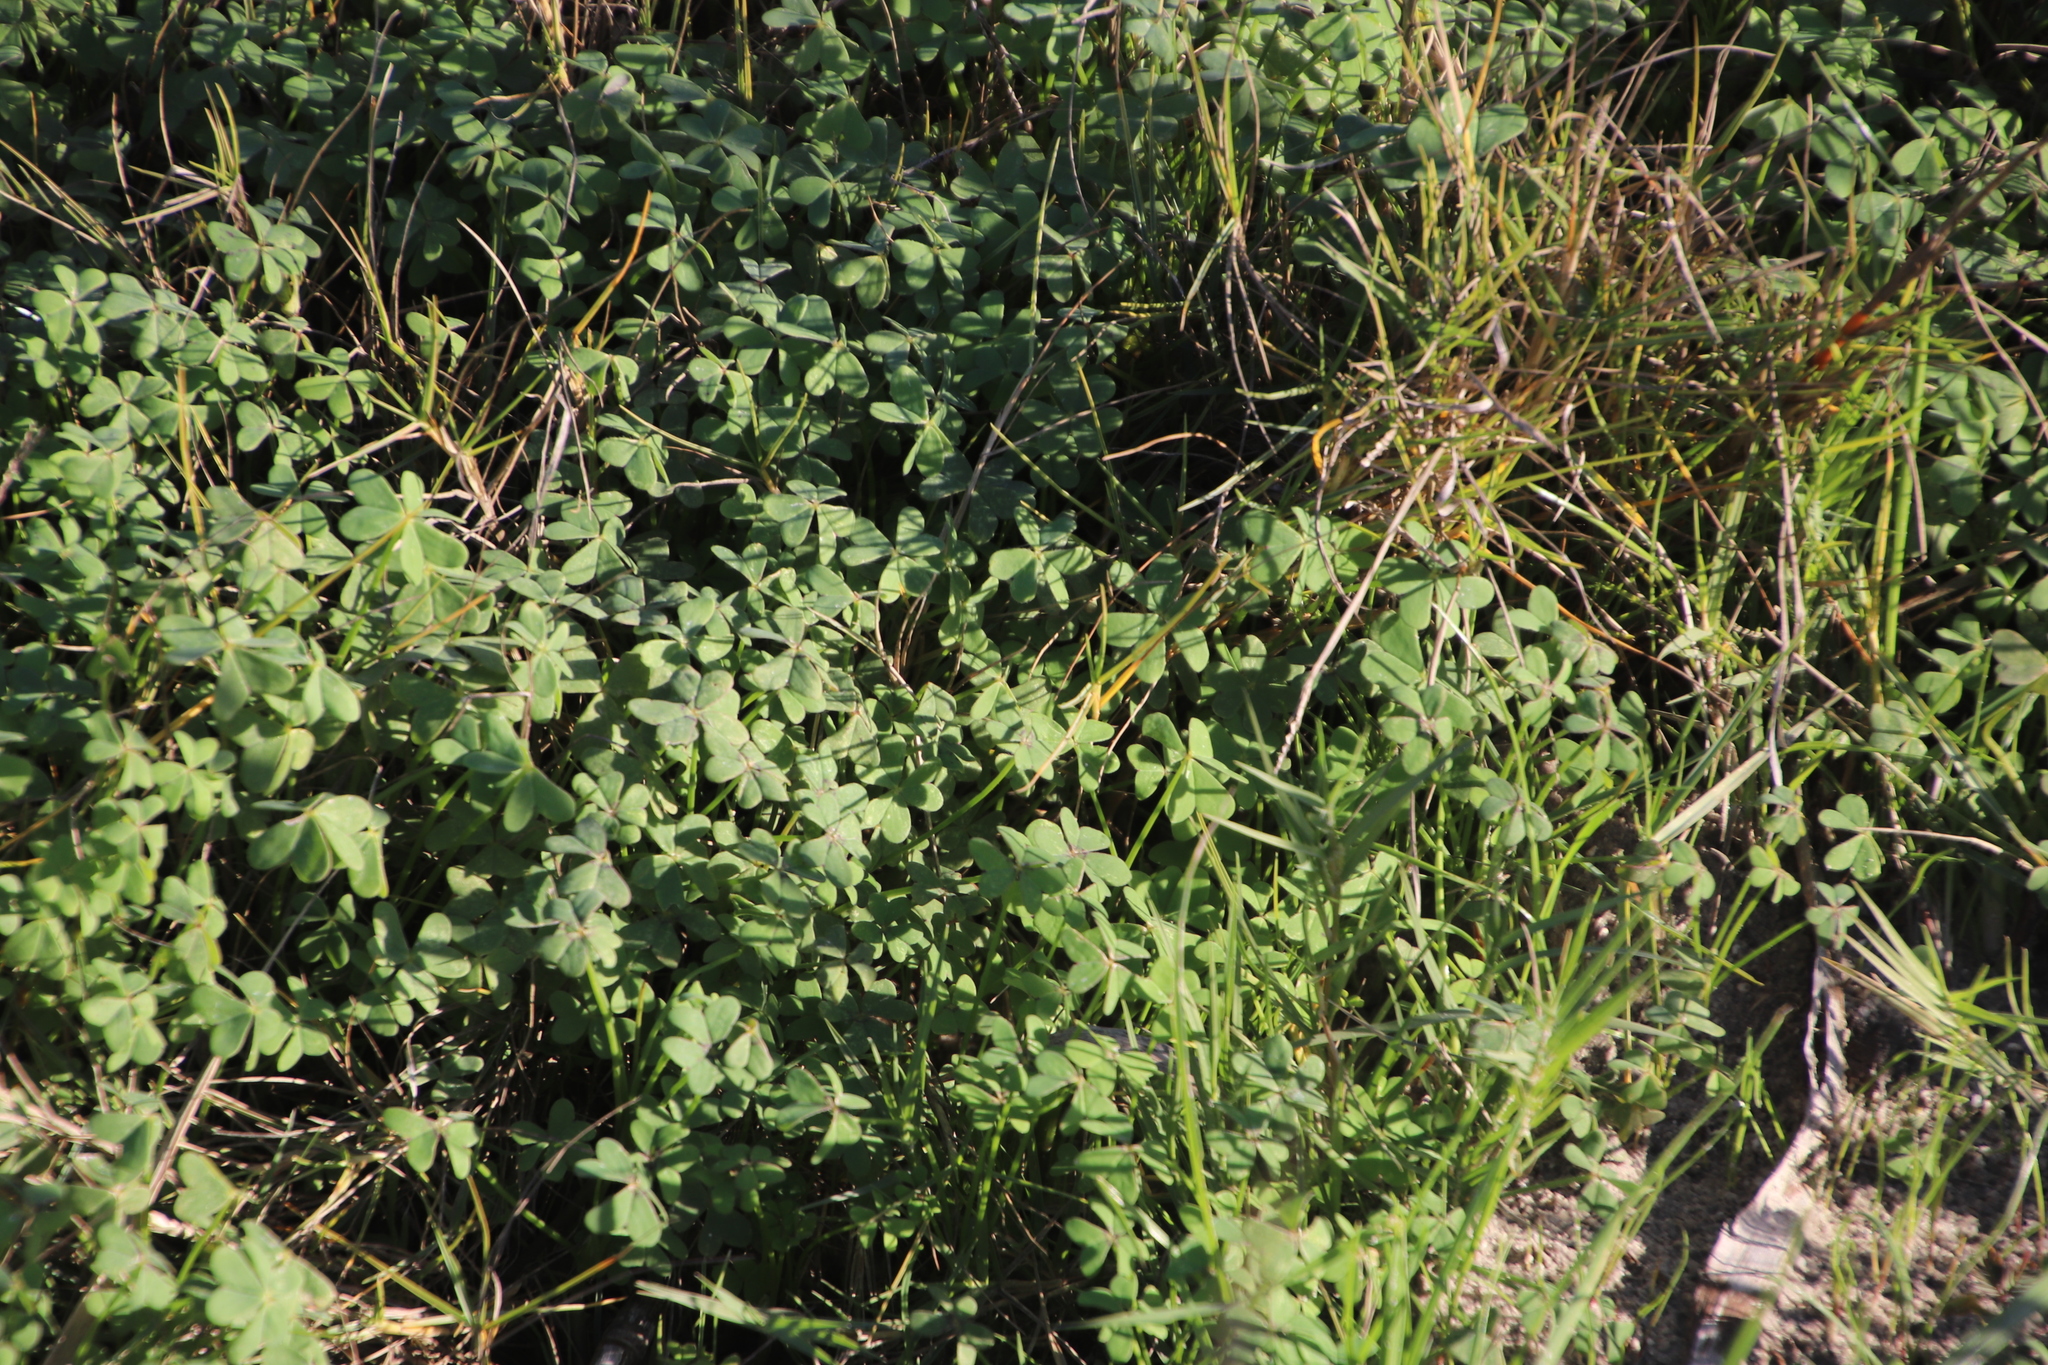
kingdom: Plantae
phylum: Tracheophyta
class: Magnoliopsida
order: Oxalidales
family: Oxalidaceae
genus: Oxalis
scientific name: Oxalis pes-caprae
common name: Bermuda-buttercup
